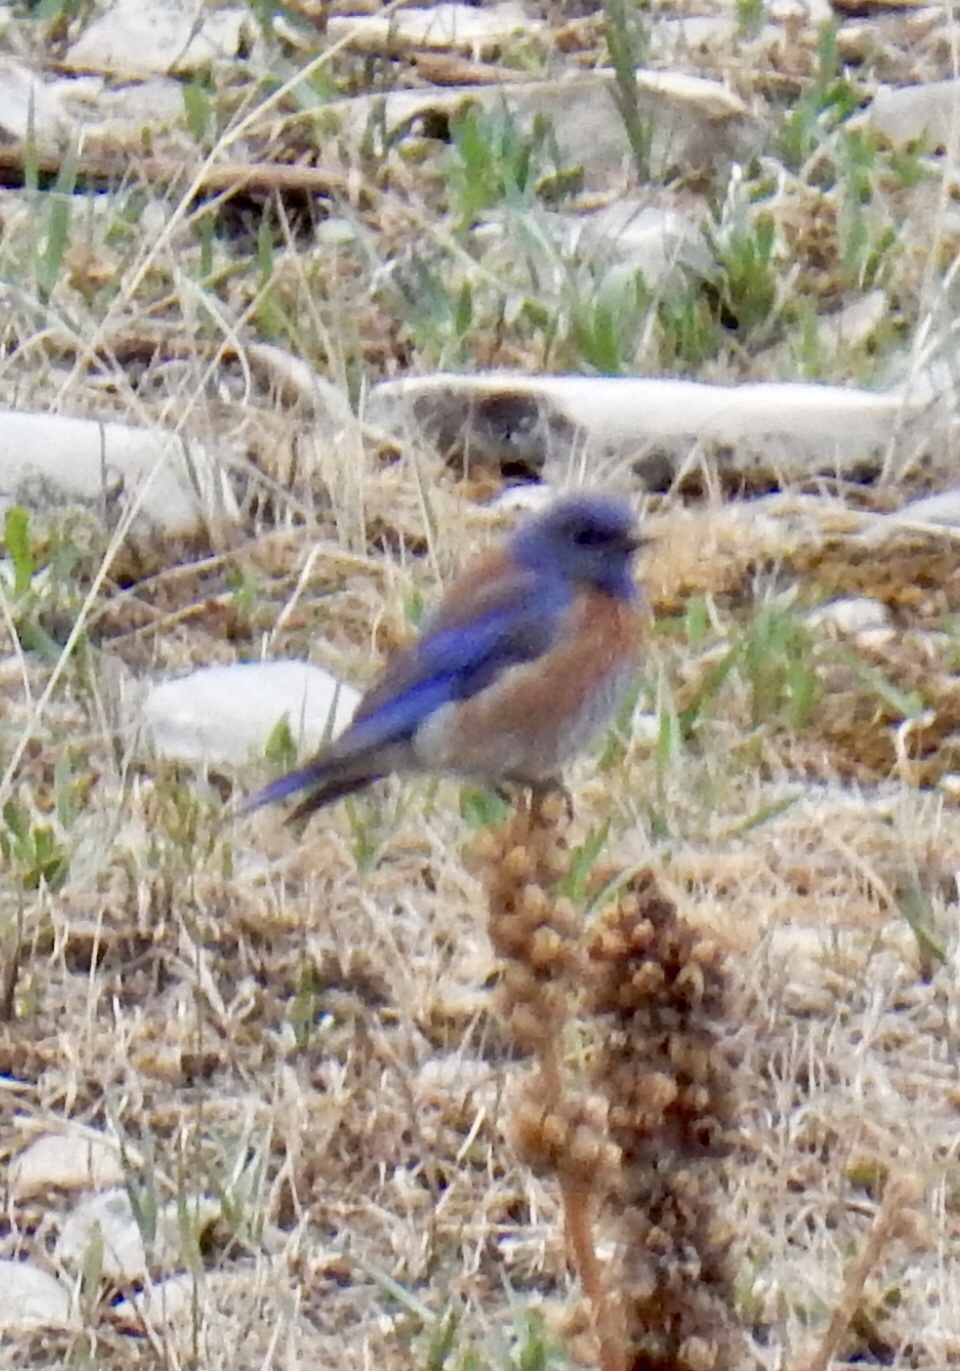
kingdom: Animalia
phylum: Chordata
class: Aves
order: Passeriformes
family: Turdidae
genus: Sialia
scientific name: Sialia mexicana
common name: Western bluebird
